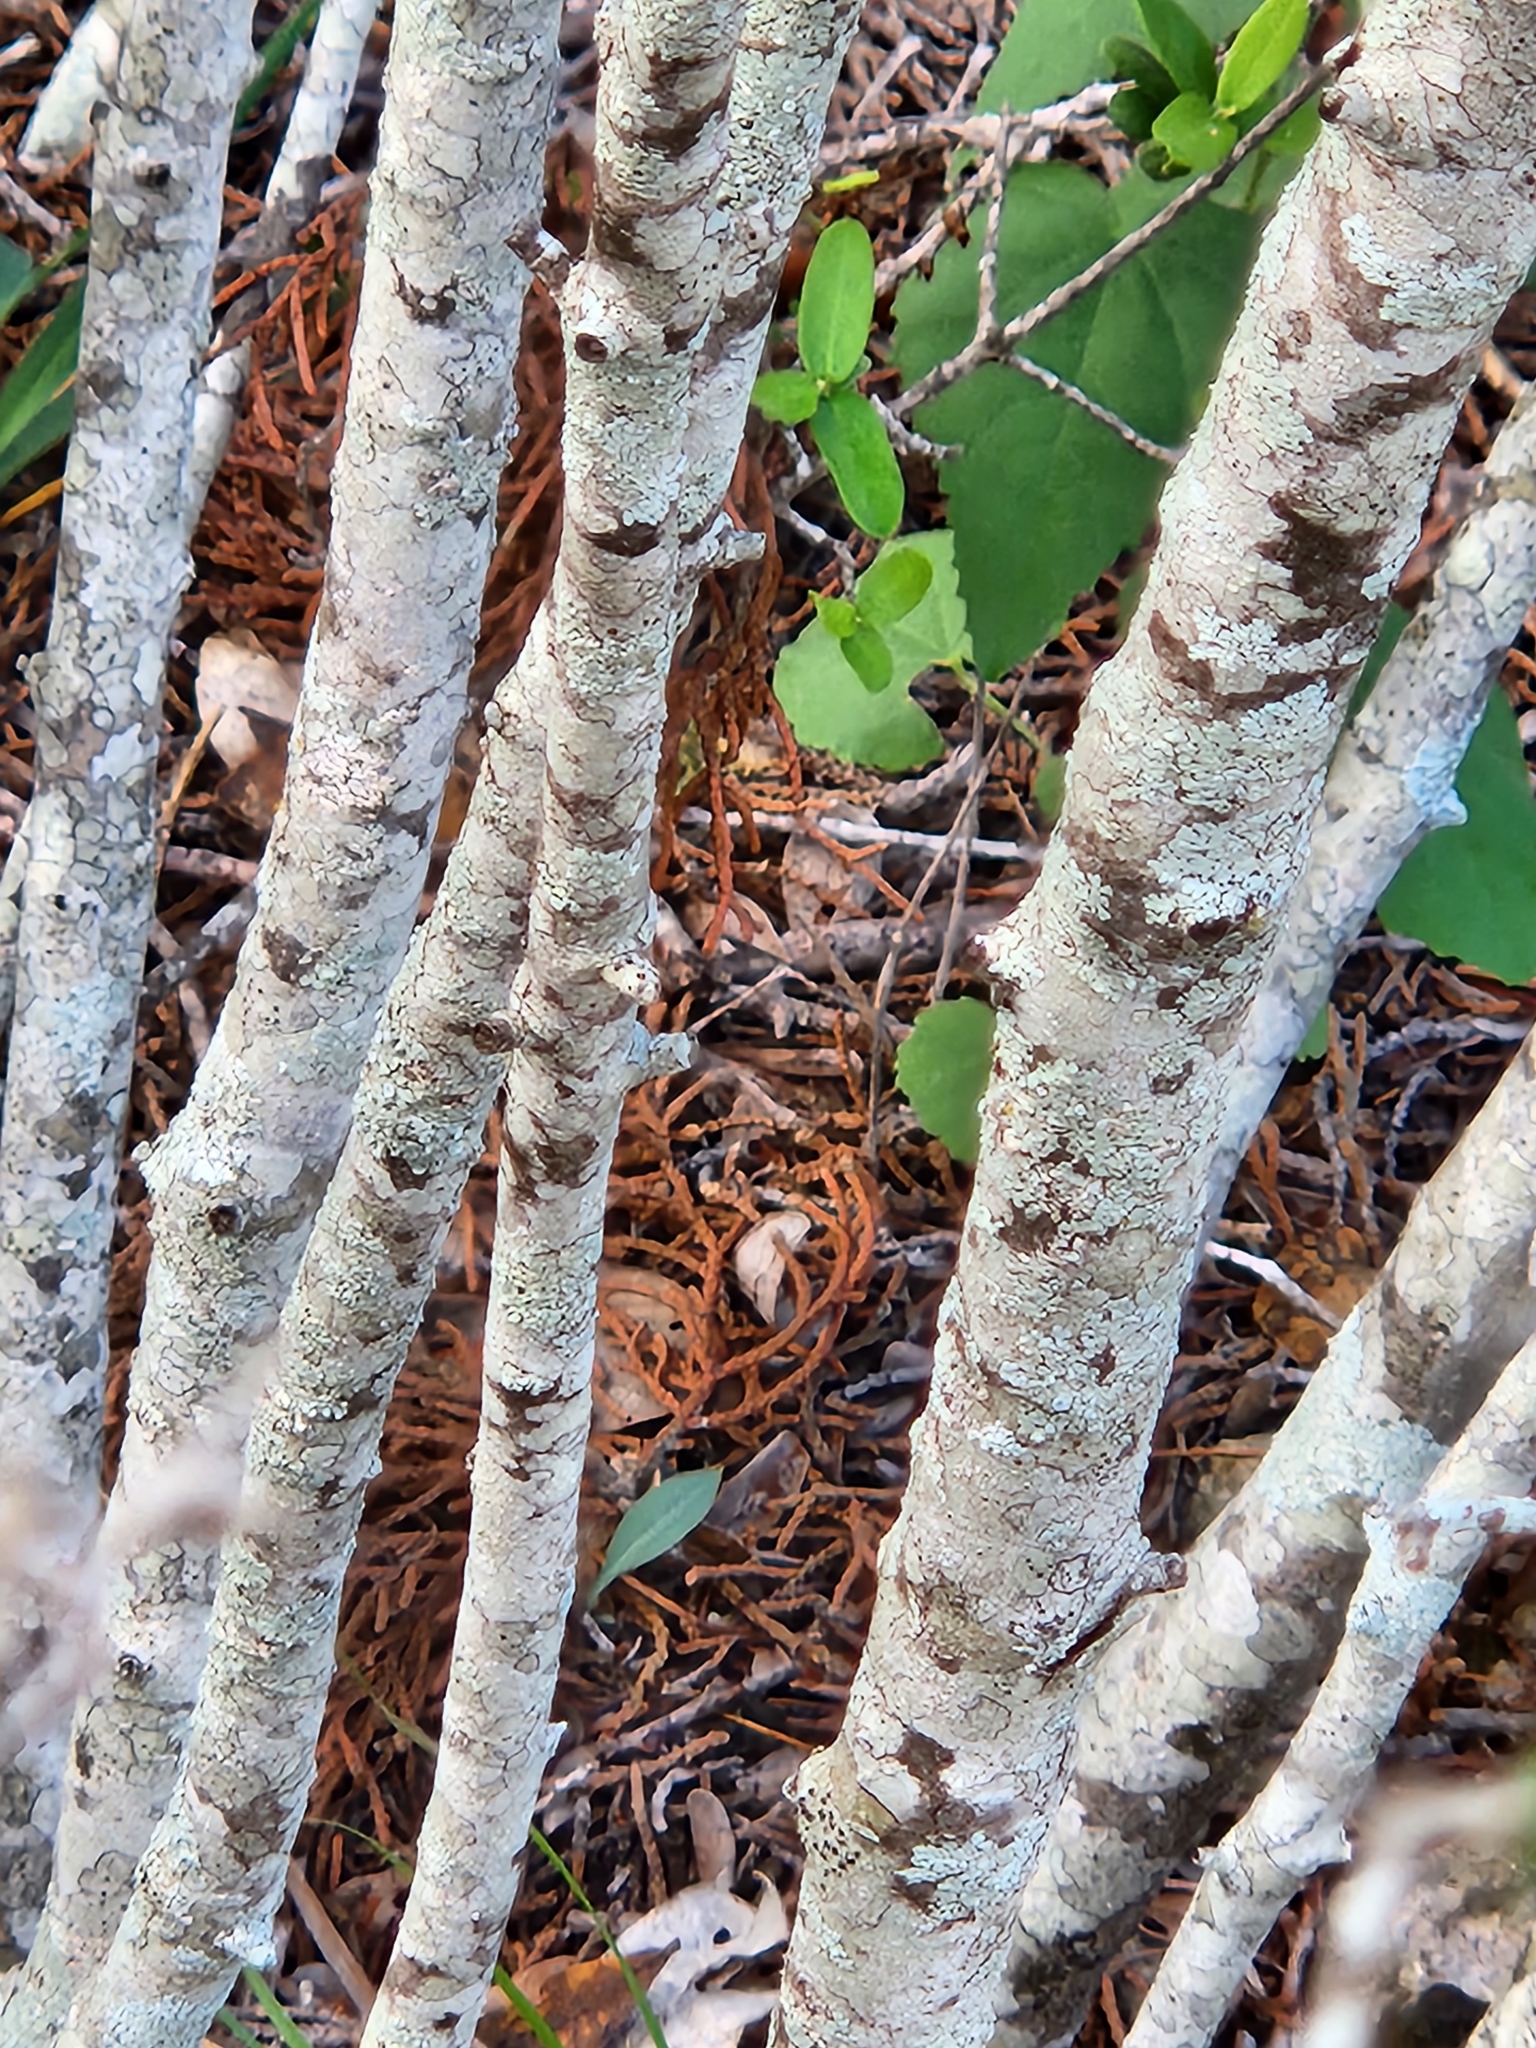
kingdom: Plantae
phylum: Tracheophyta
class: Magnoliopsida
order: Ericales
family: Ebenaceae
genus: Diospyros
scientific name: Diospyros texana
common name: Texas persimmon
